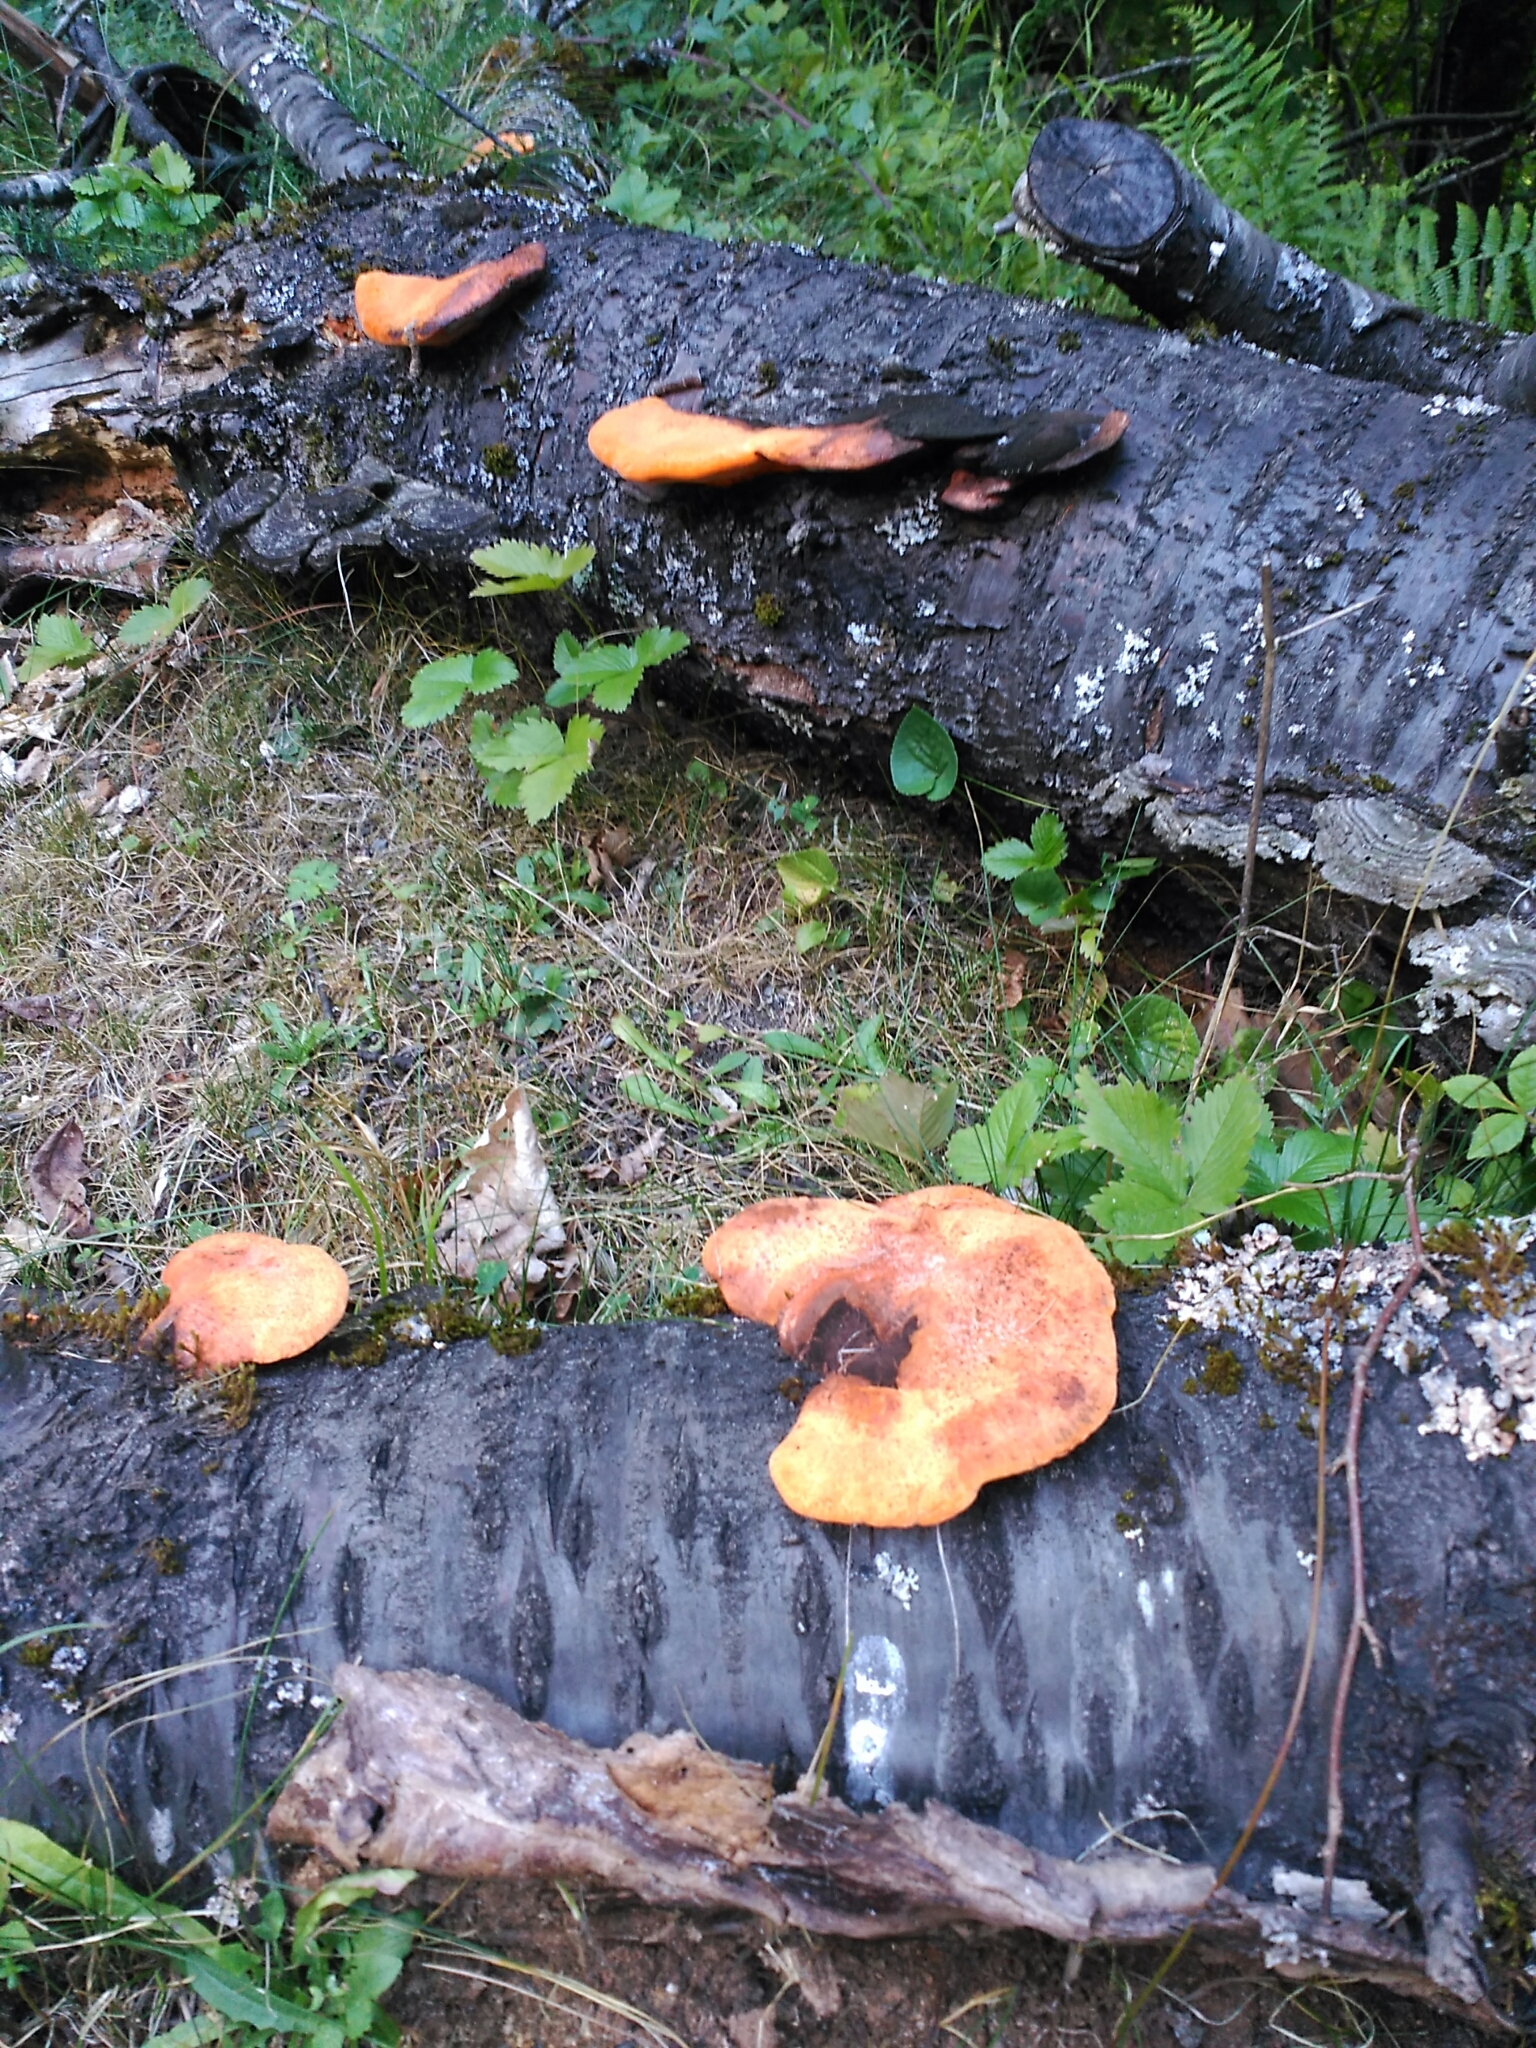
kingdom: Fungi
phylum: Basidiomycota
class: Agaricomycetes
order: Polyporales
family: Polyporaceae
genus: Trametes
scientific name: Trametes cinnabarina
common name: Northern cinnabar polypore
